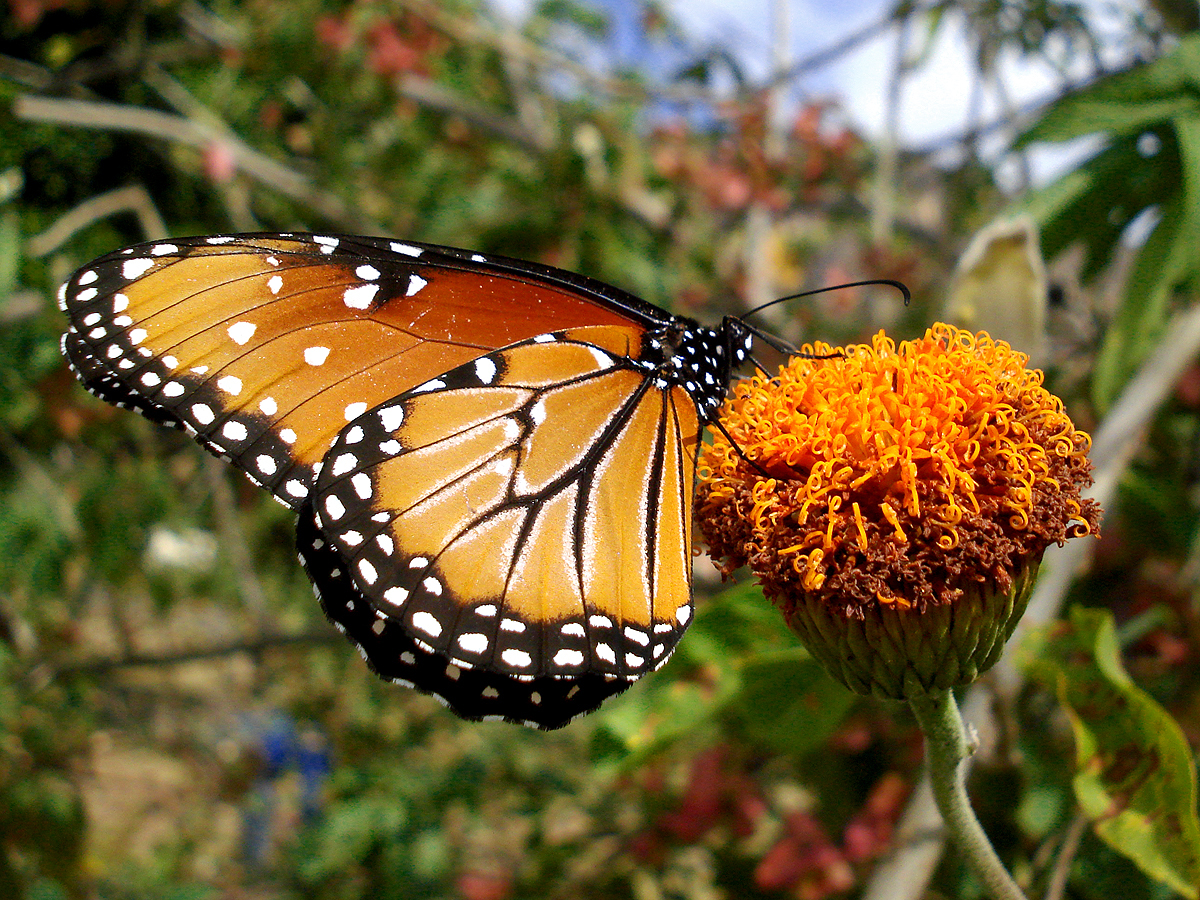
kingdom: Animalia
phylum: Arthropoda
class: Insecta
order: Lepidoptera
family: Nymphalidae
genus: Danaus
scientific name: Danaus gilippus
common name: Queen
